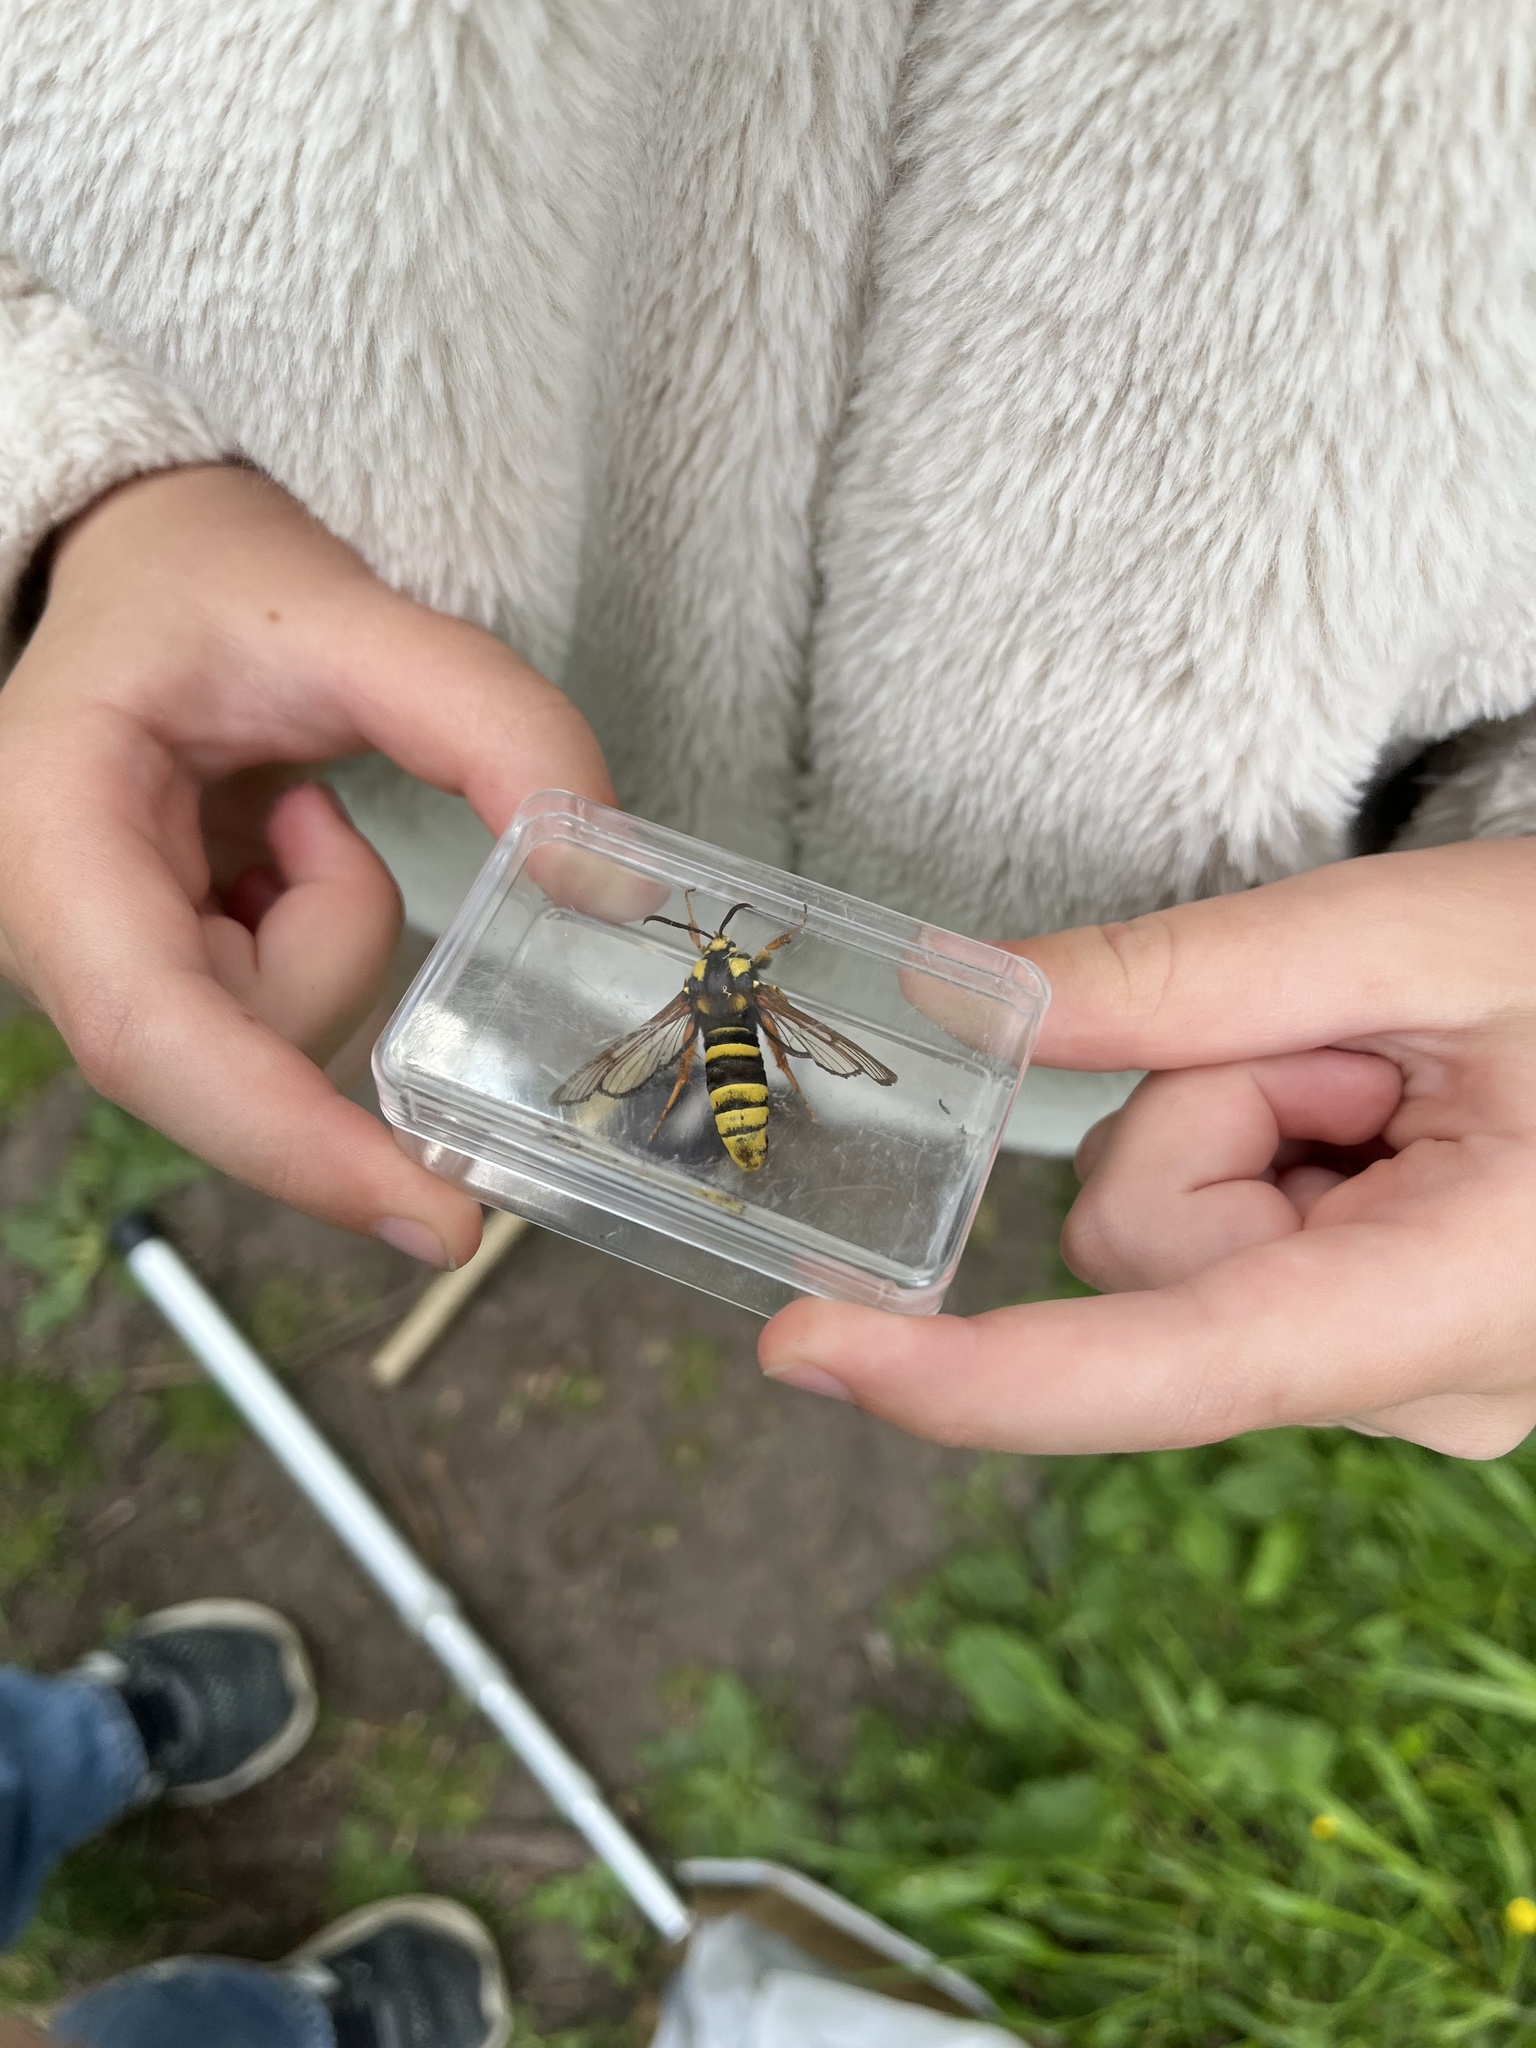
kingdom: Animalia
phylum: Arthropoda
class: Insecta
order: Lepidoptera
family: Sesiidae
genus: Sesia
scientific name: Sesia apiformis
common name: Hornet moth
